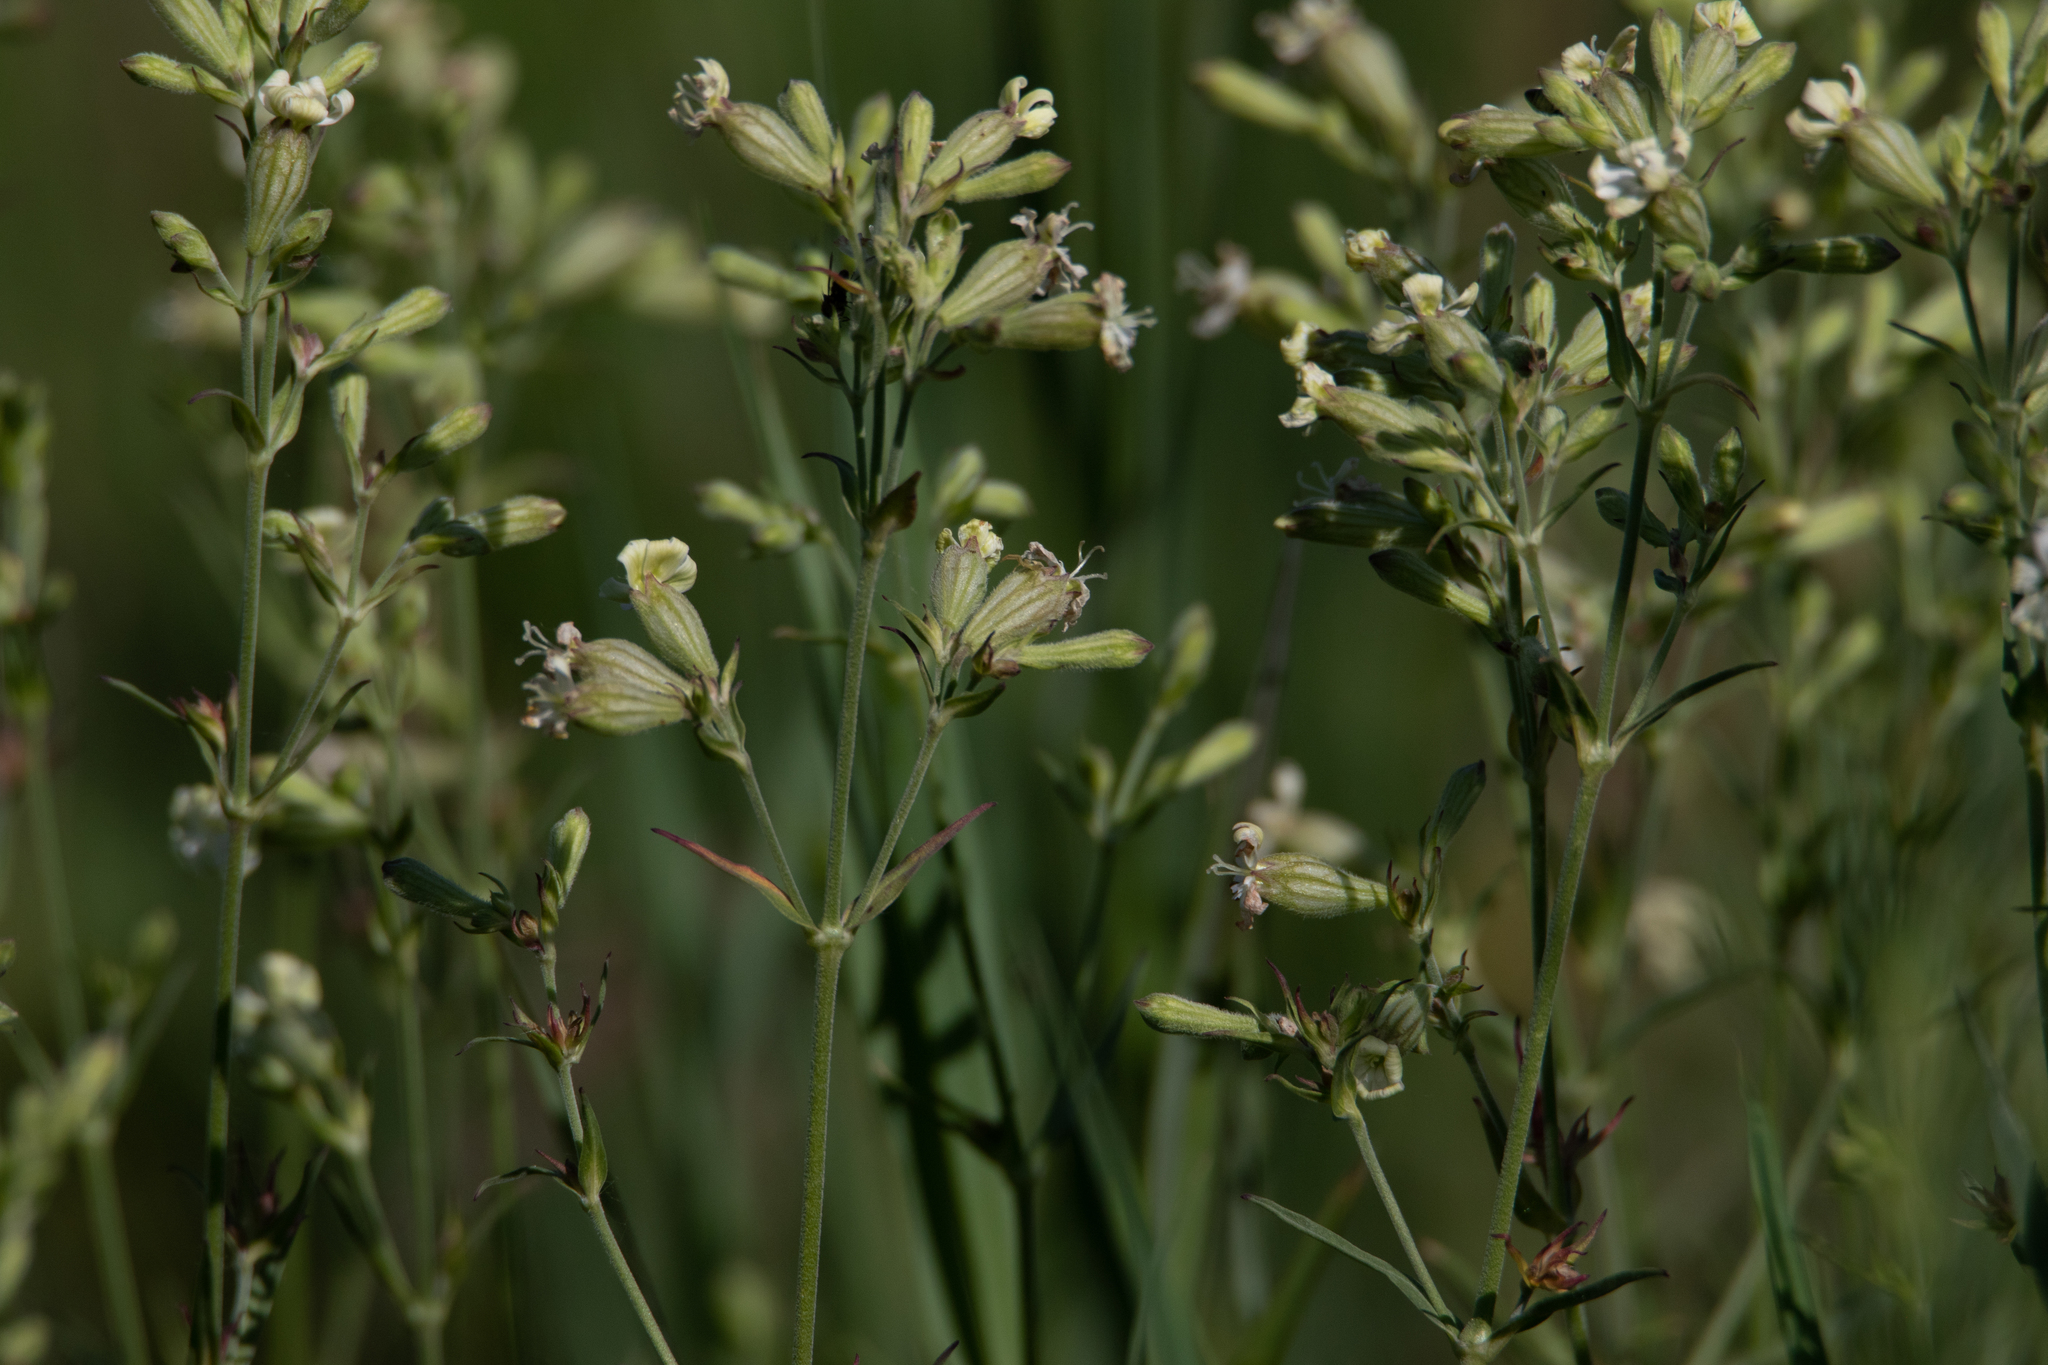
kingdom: Plantae
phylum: Tracheophyta
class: Magnoliopsida
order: Caryophyllales
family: Caryophyllaceae
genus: Silene
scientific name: Silene amoena
